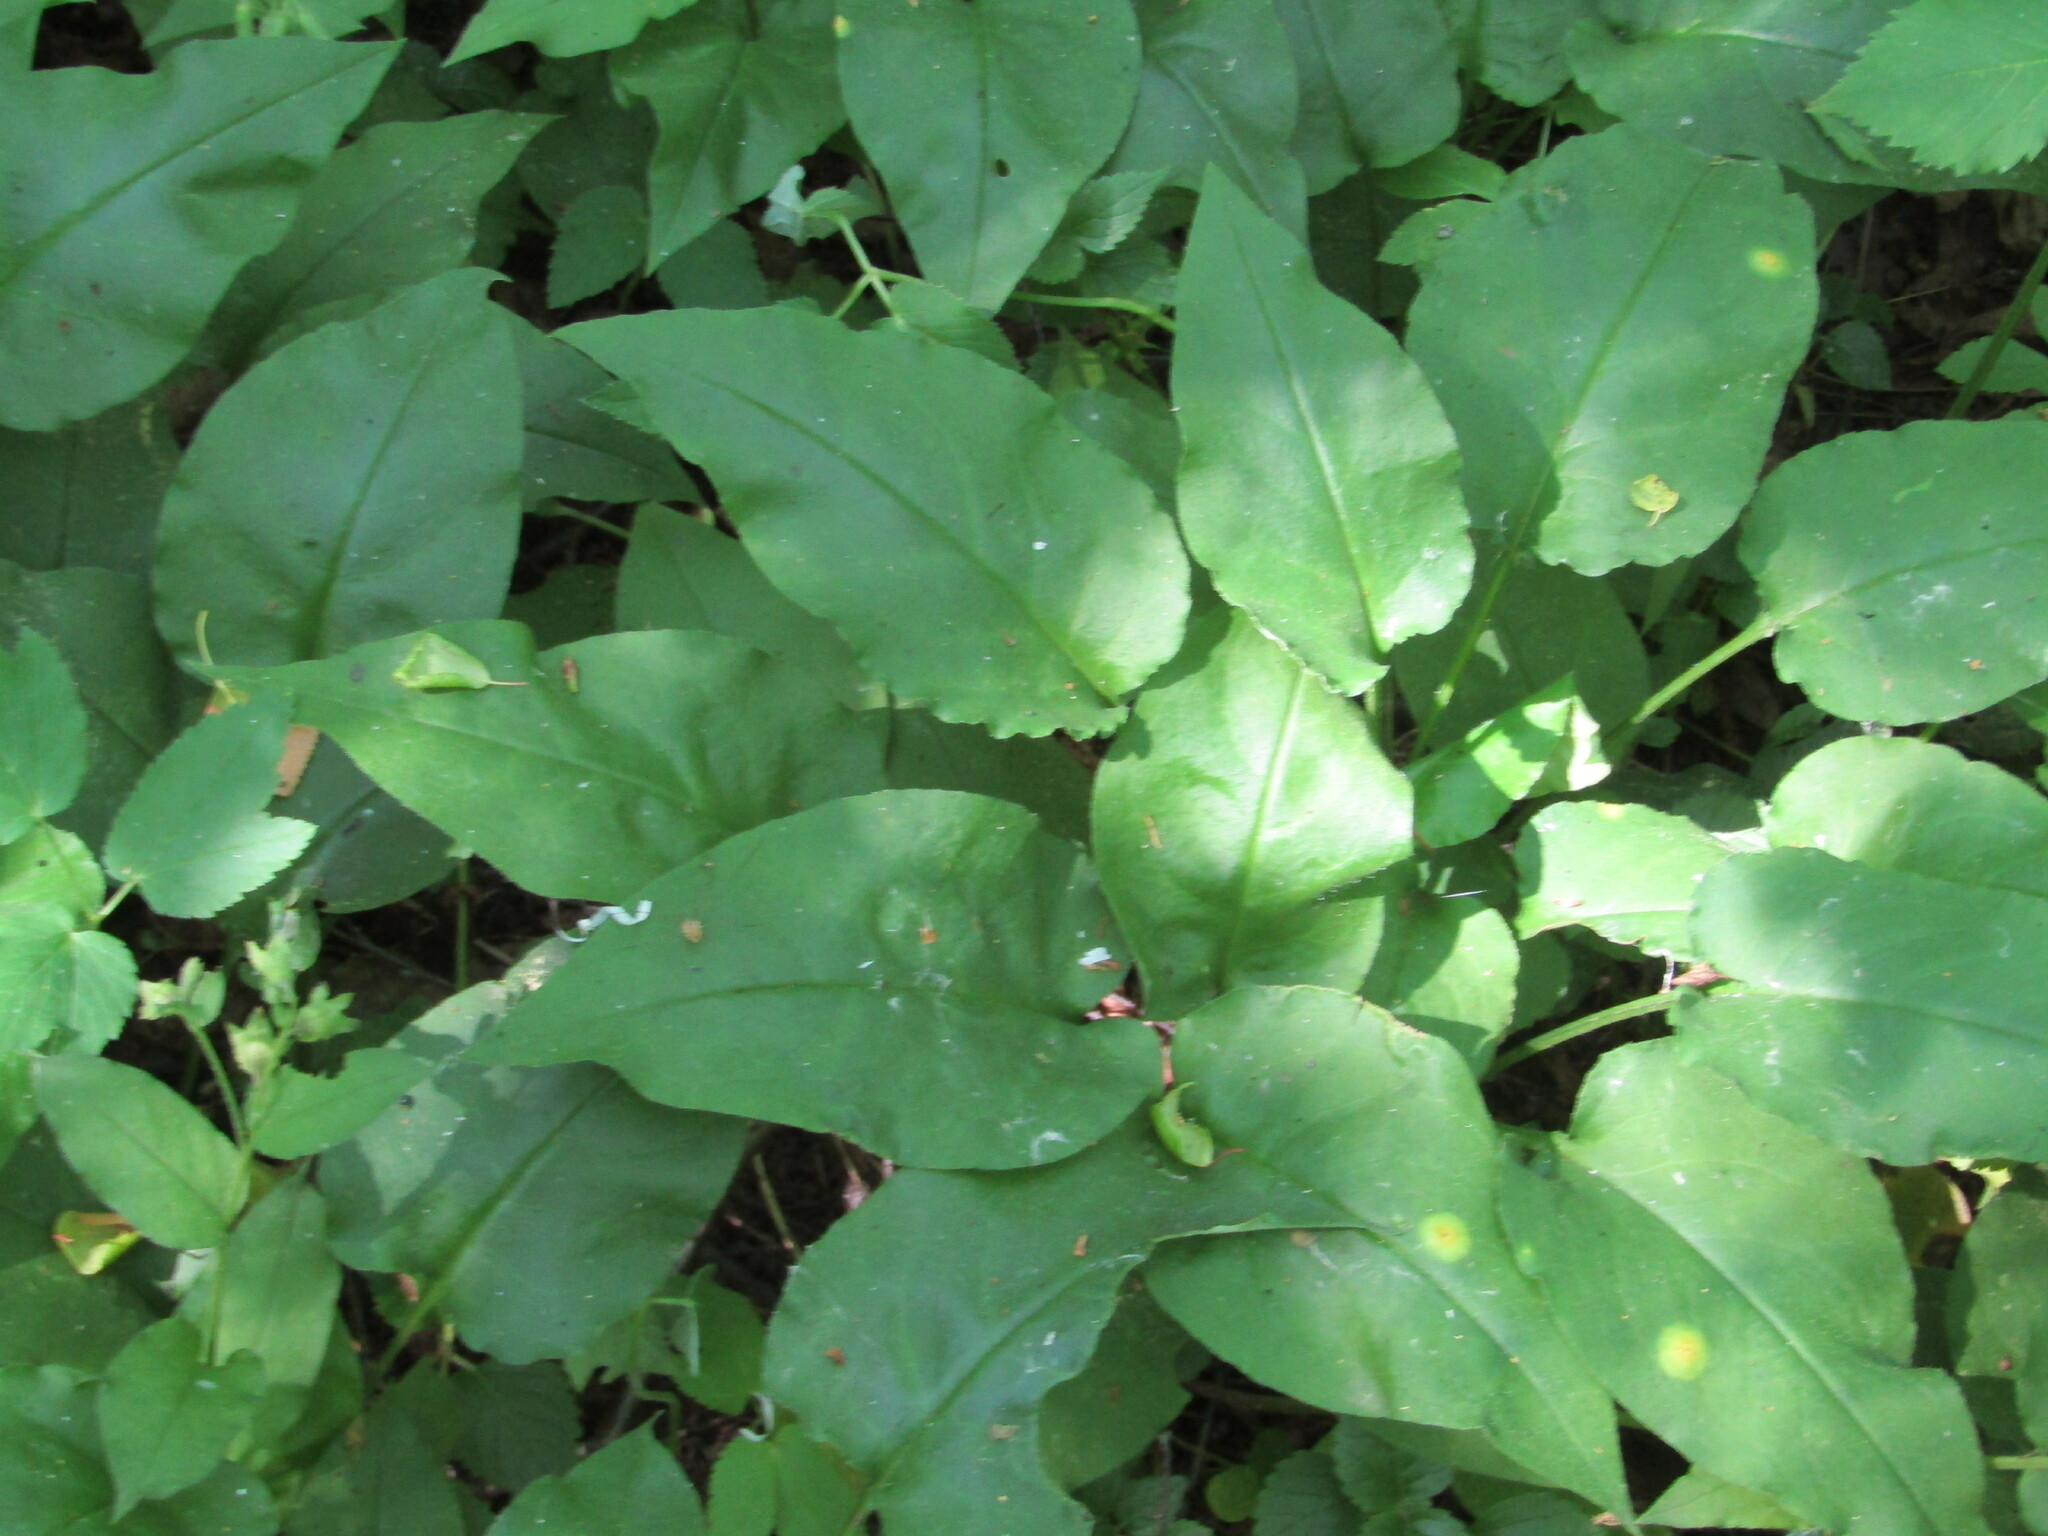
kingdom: Plantae
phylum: Tracheophyta
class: Magnoliopsida
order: Boraginales
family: Boraginaceae
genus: Pulmonaria
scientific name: Pulmonaria obscura
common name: Suffolk lungwort
